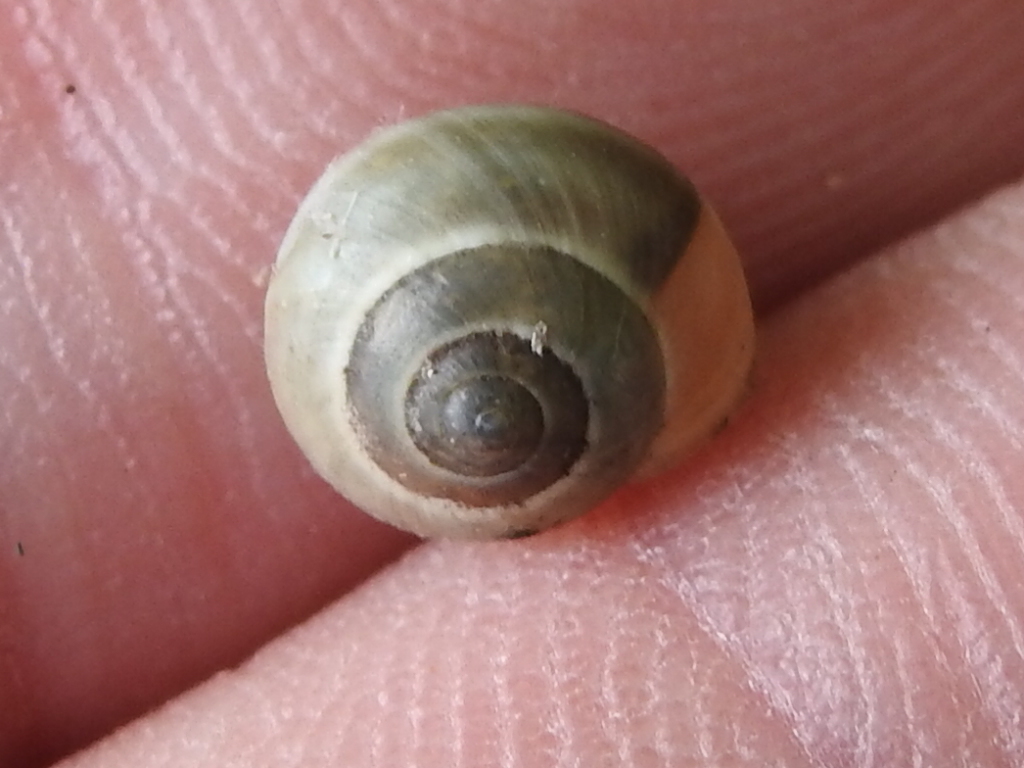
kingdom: Animalia
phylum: Mollusca
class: Gastropoda
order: Cycloneritida
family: Helicinidae
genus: Helicina
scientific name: Helicina orbiculata
